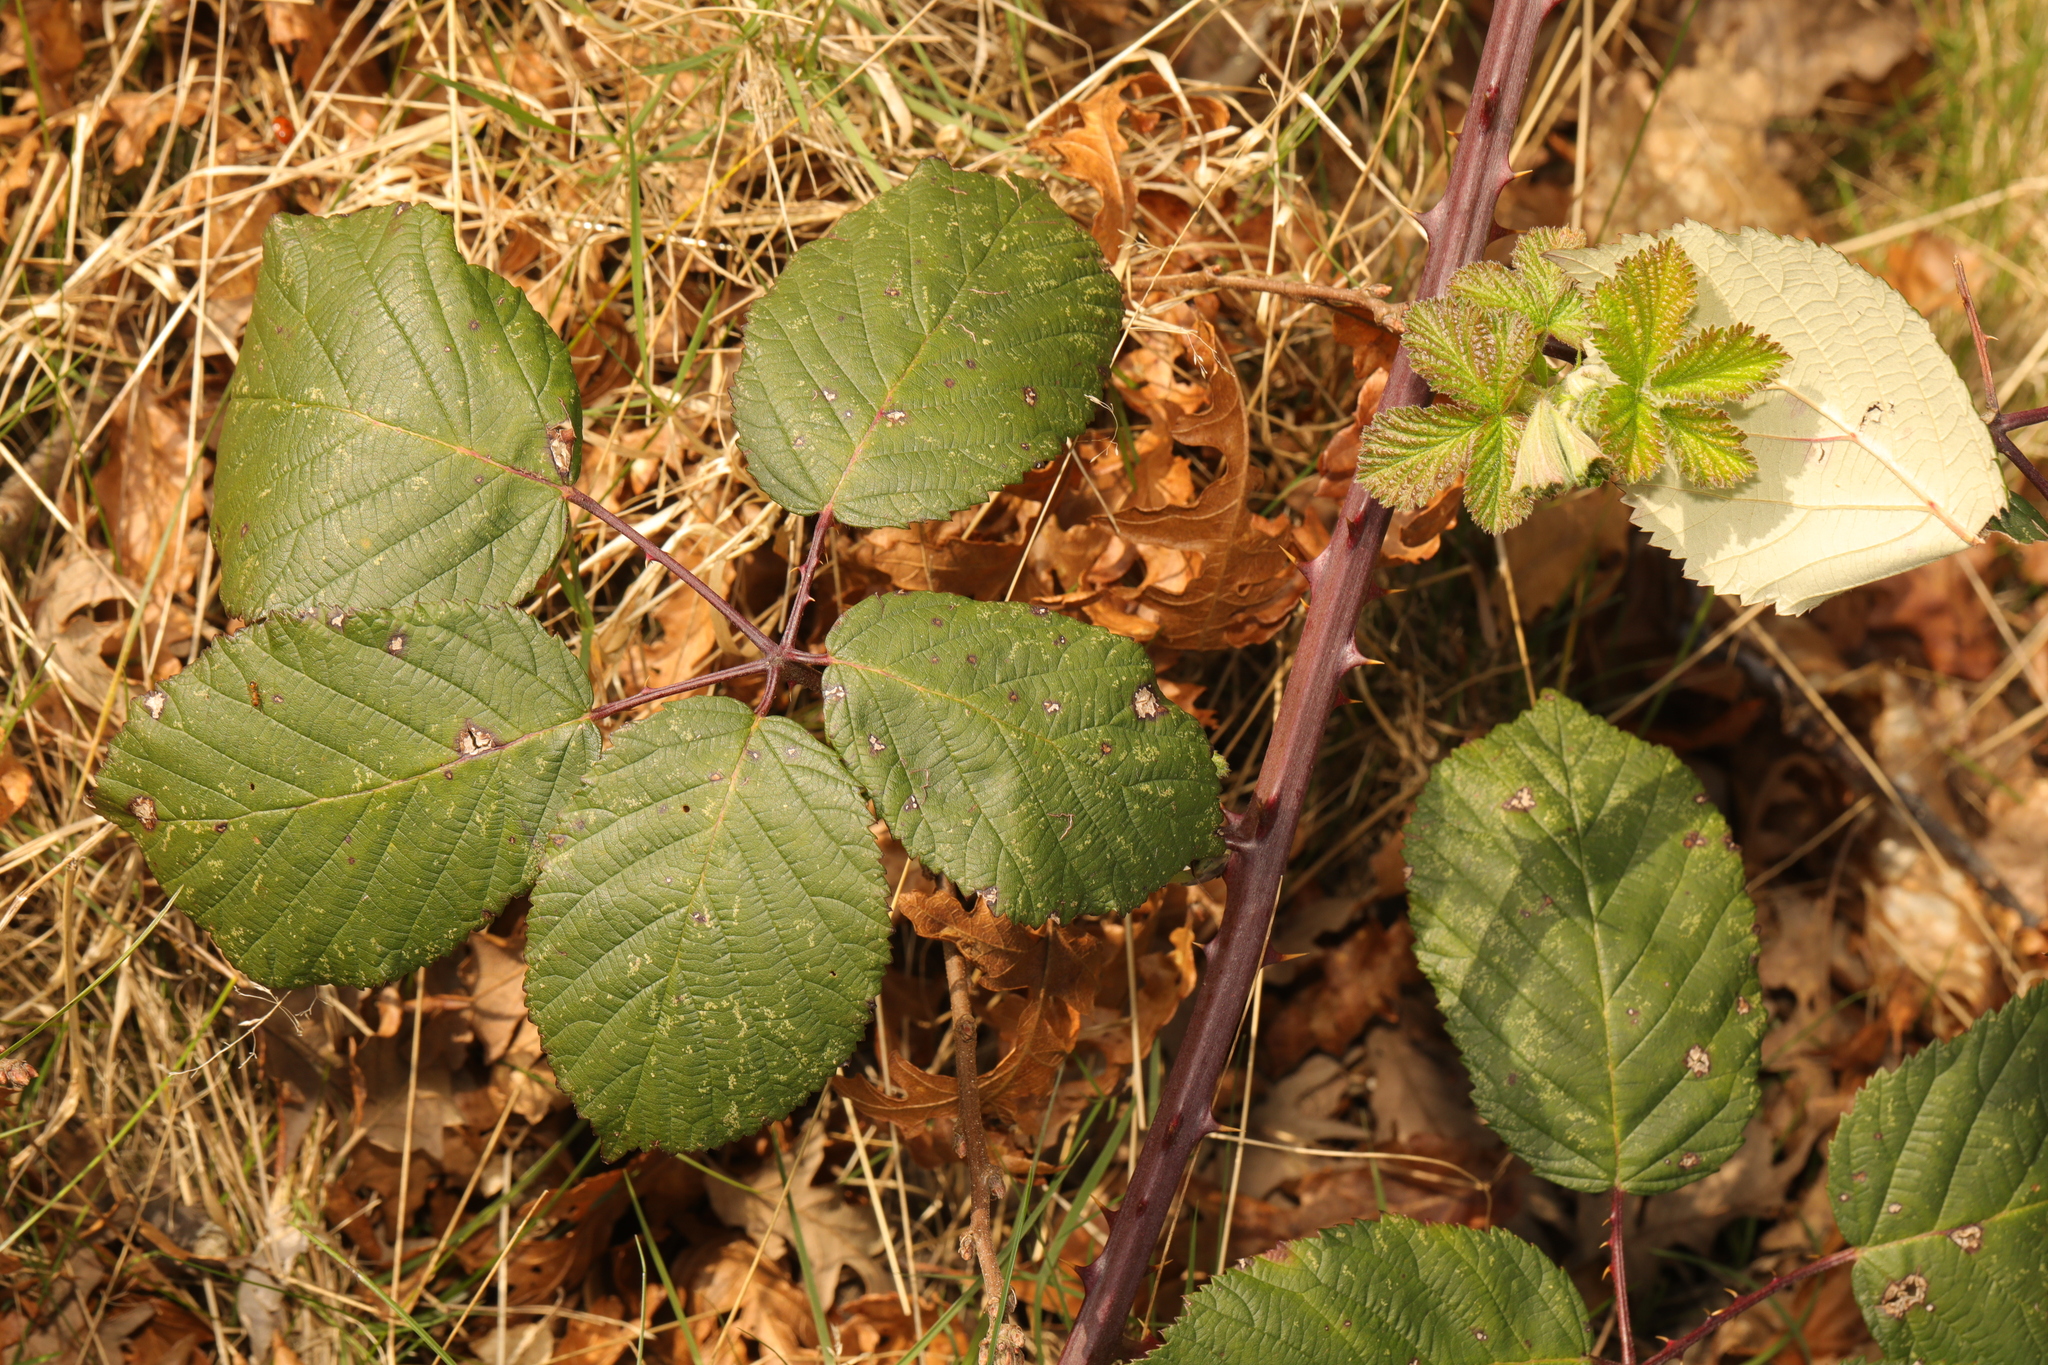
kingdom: Plantae
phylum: Tracheophyta
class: Magnoliopsida
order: Rosales
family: Rosaceae
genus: Rubus
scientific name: Rubus armeniacus
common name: Himalayan blackberry
